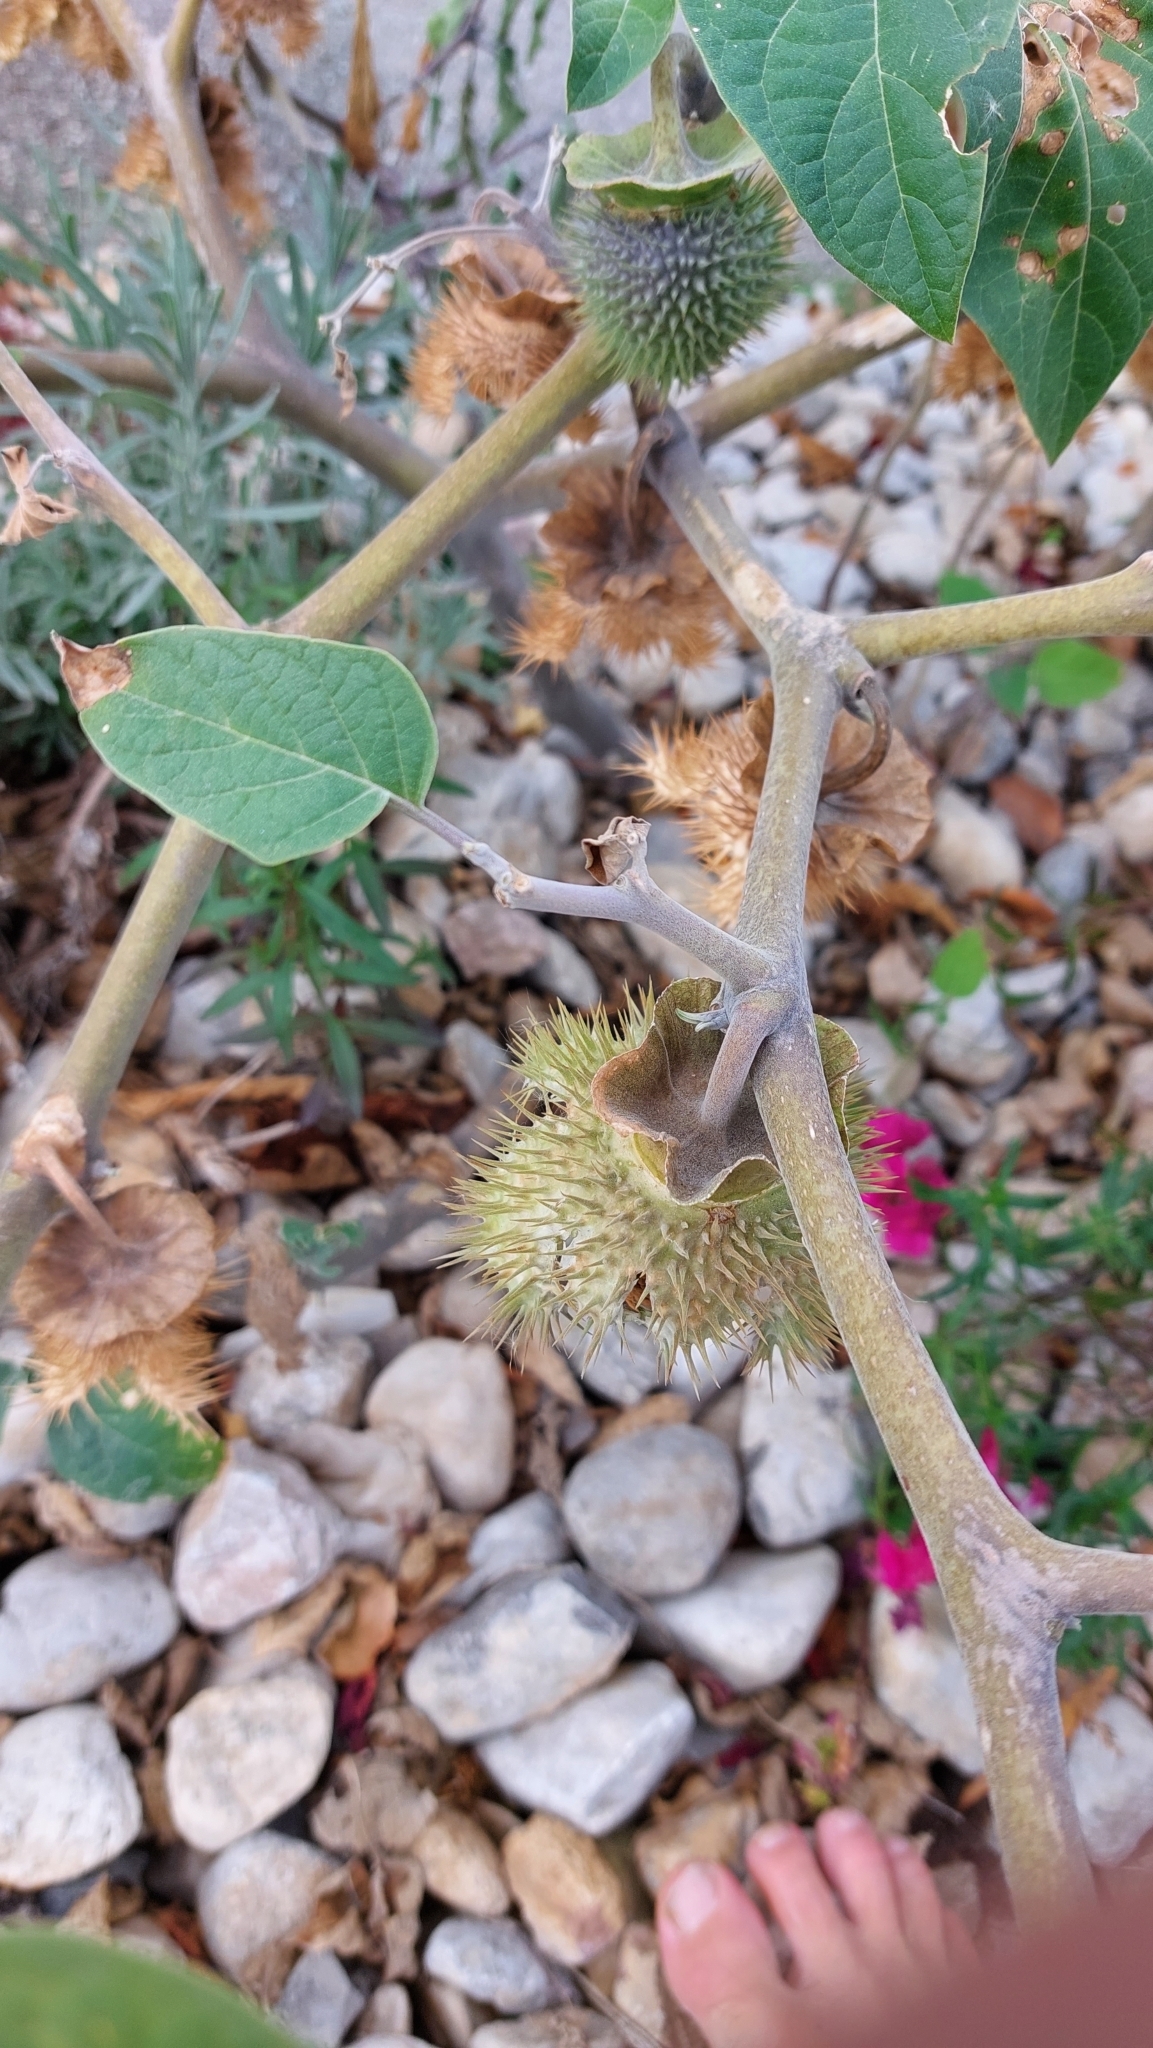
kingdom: Plantae
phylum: Tracheophyta
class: Magnoliopsida
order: Solanales
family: Solanaceae
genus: Datura
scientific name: Datura wrightii
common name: Sacred thorn-apple
